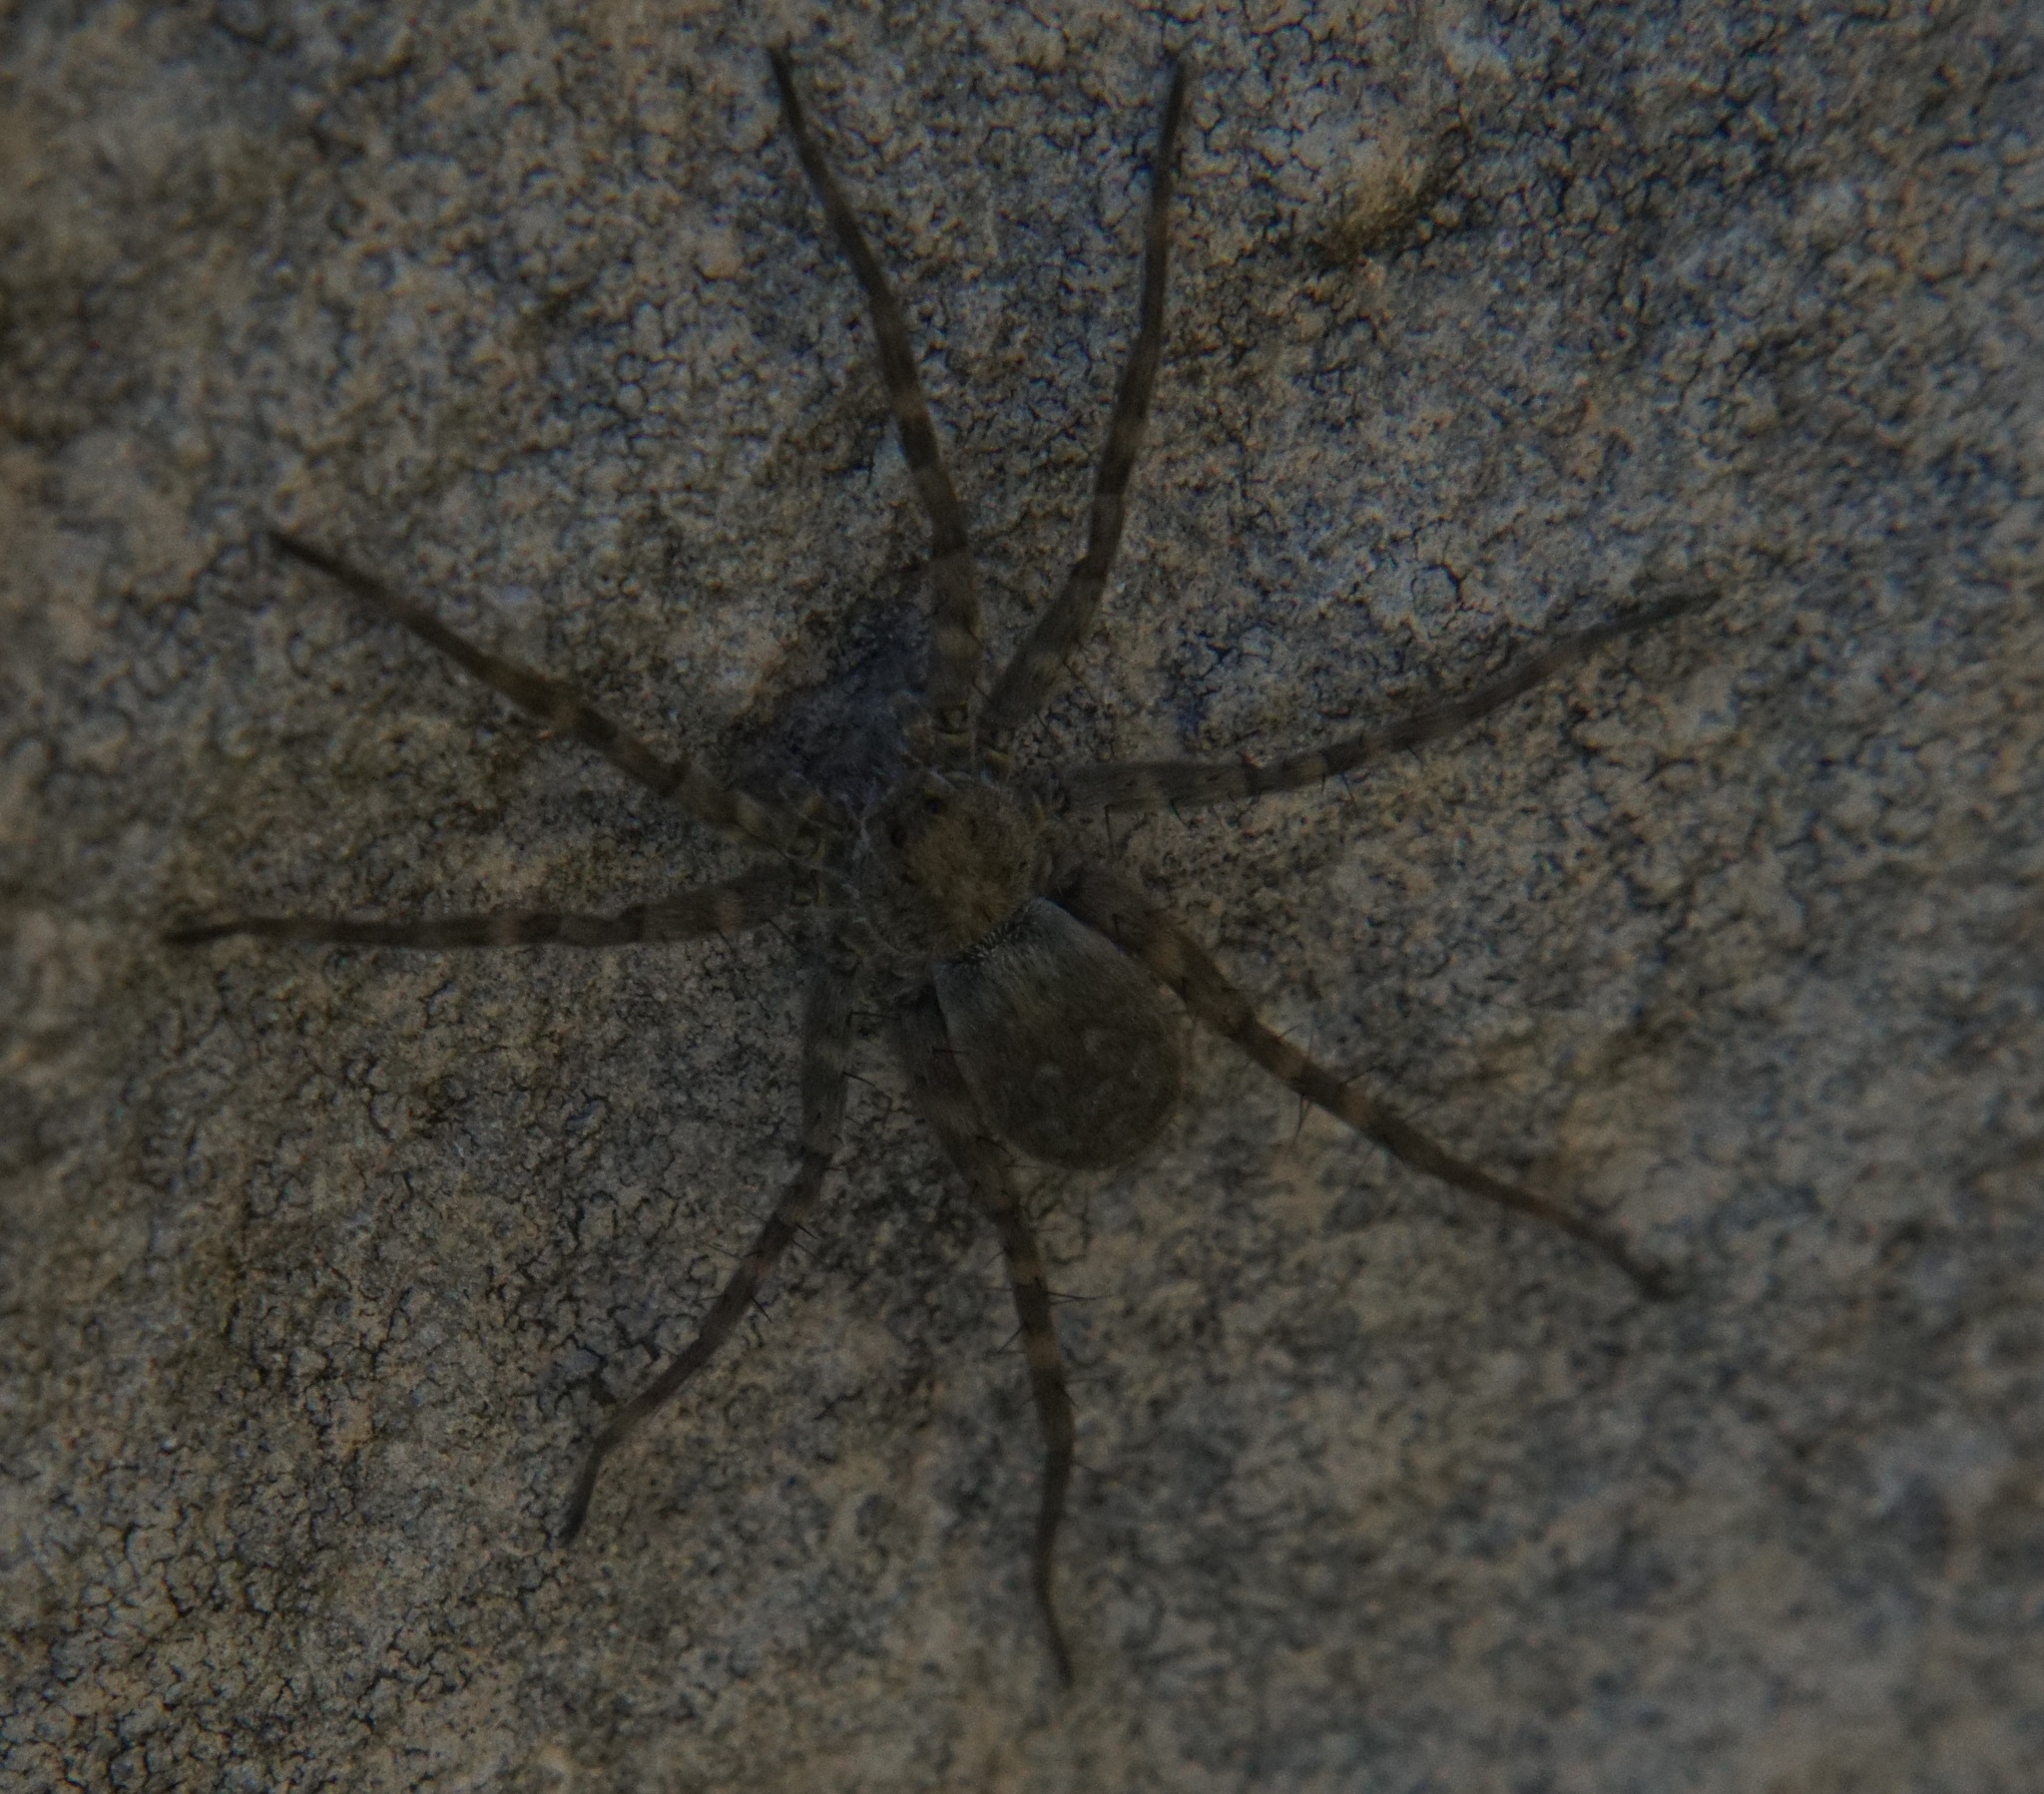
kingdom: Animalia
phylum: Arthropoda
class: Arachnida
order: Araneae
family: Lycosidae
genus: Pardosa
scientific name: Pardosa lapidicina
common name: Stone spider
